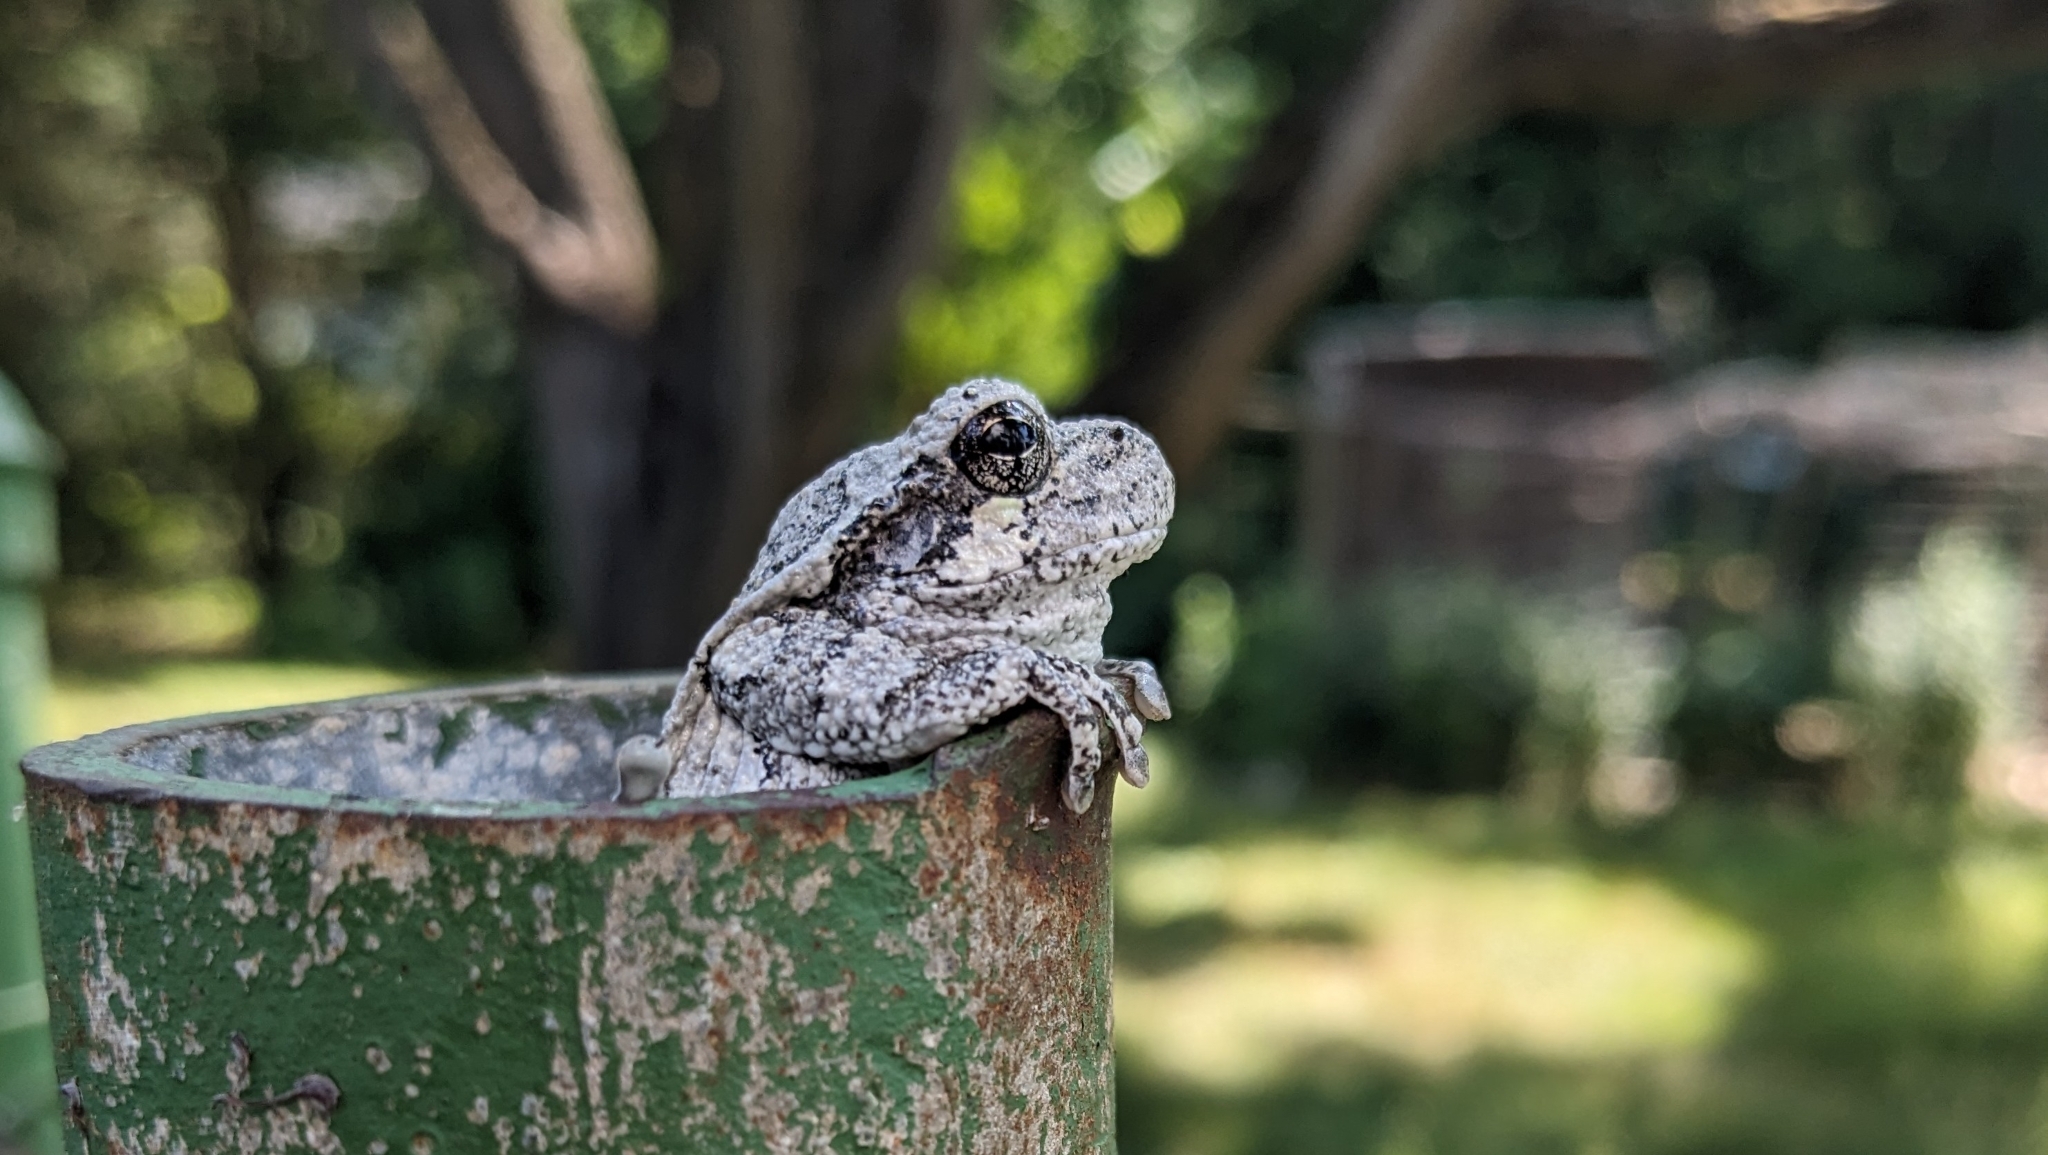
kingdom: Animalia
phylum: Chordata
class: Amphibia
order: Anura
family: Hylidae
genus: Dryophytes
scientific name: Dryophytes versicolor
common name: Gray treefrog
